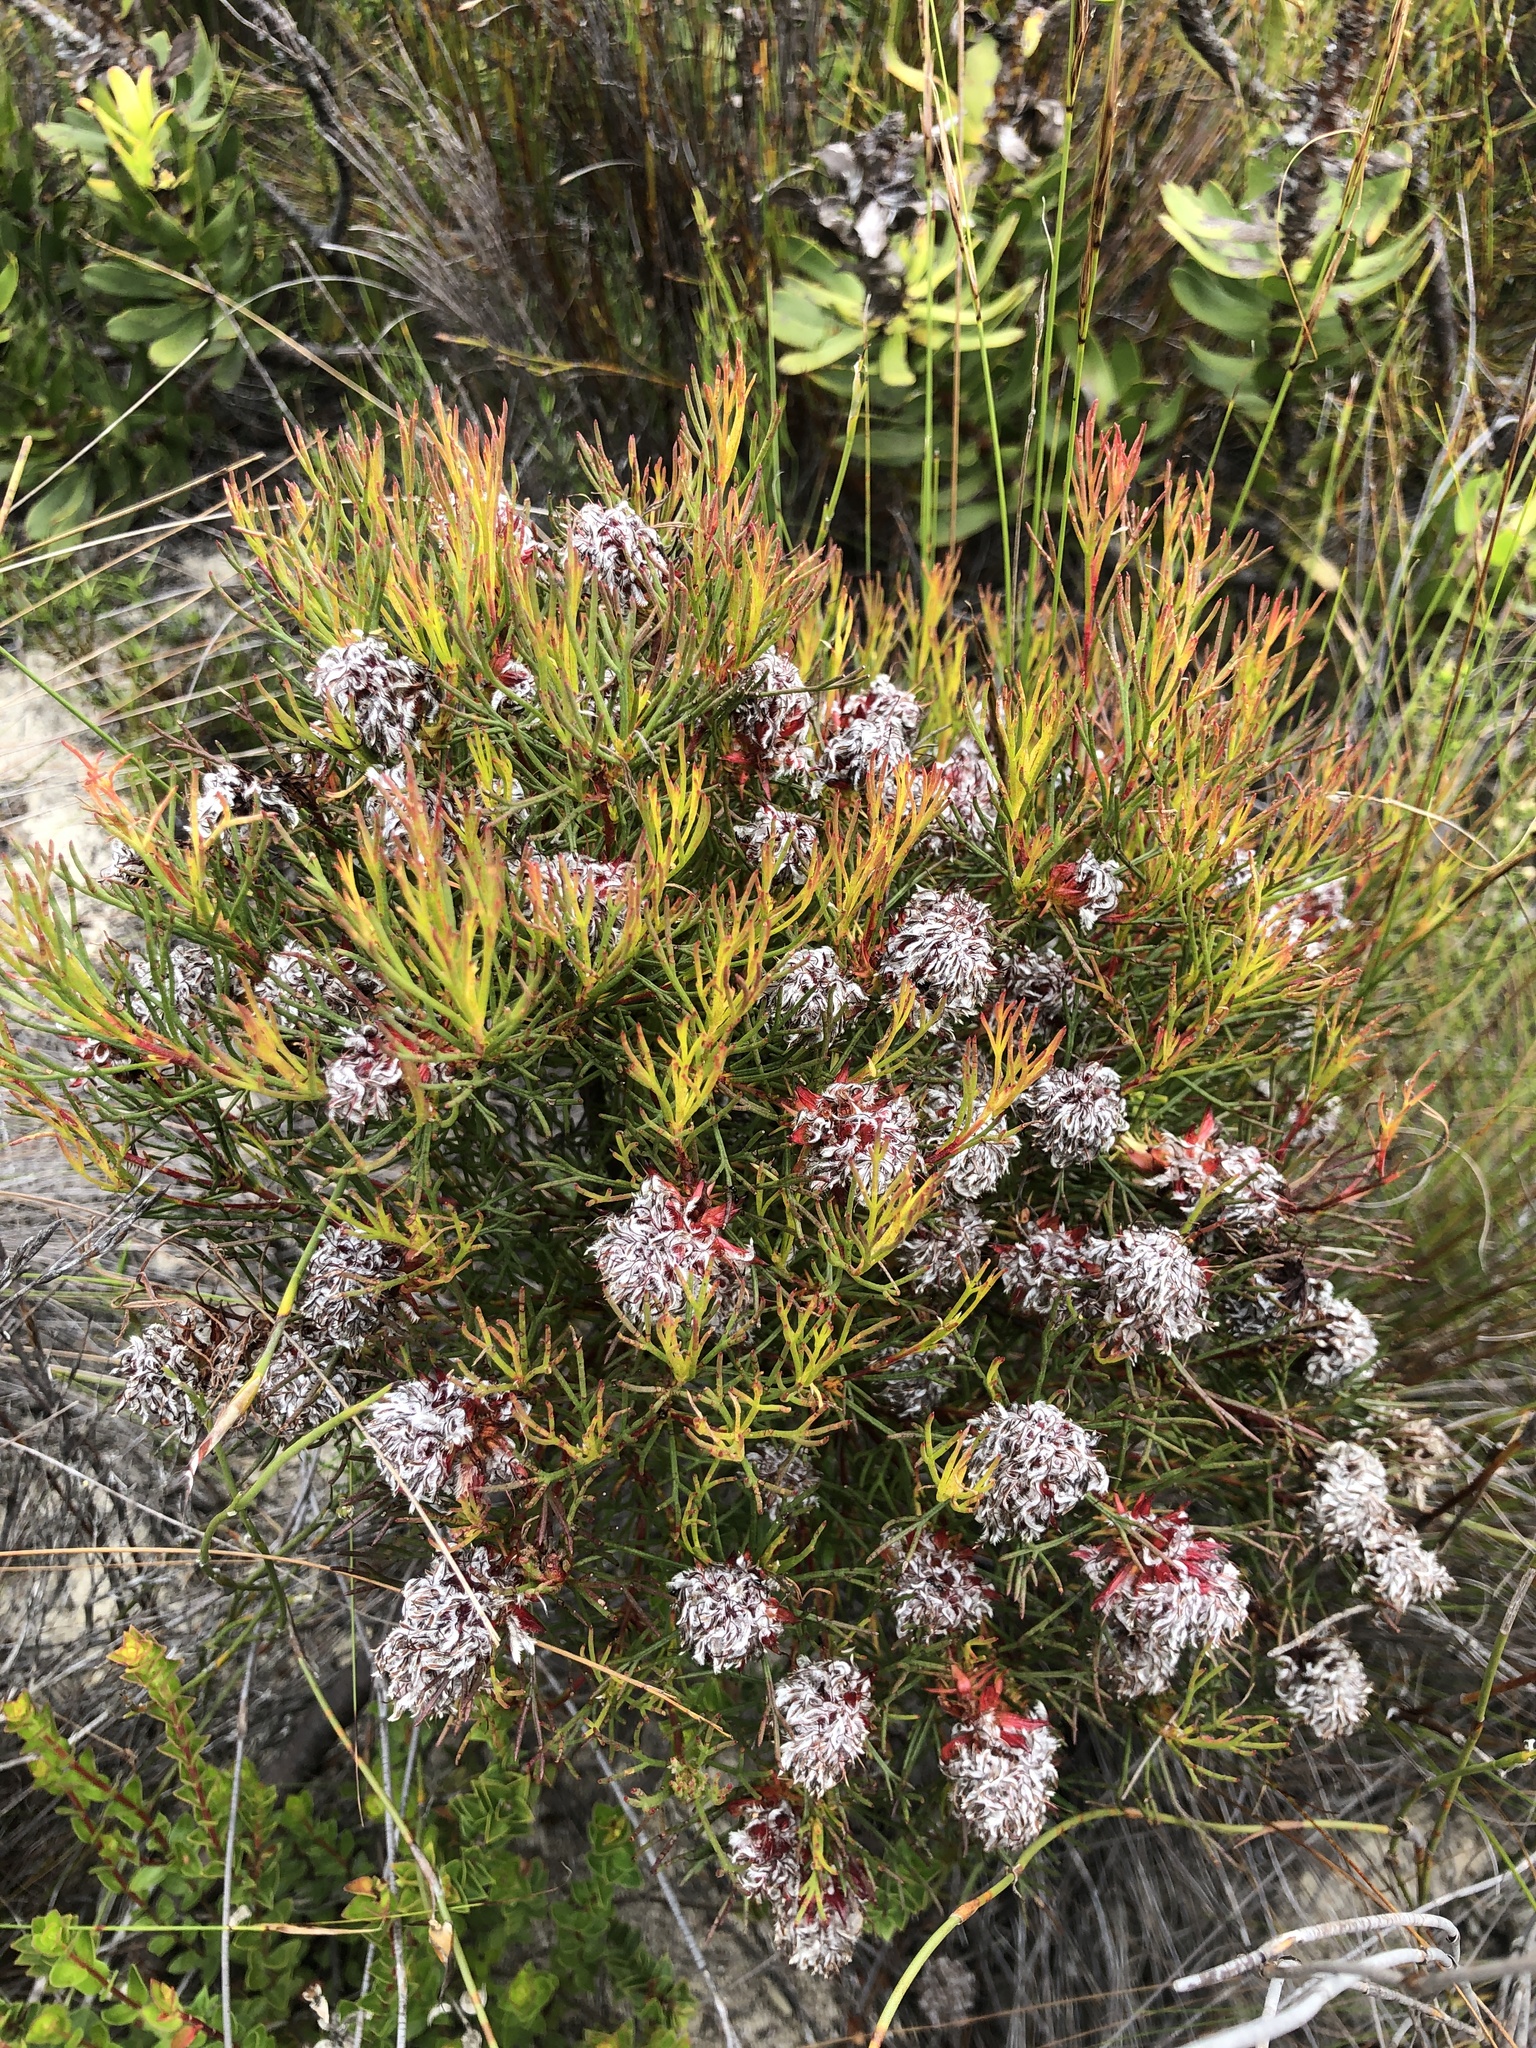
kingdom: Plantae
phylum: Tracheophyta
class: Magnoliopsida
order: Proteales
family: Proteaceae
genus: Serruria
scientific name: Serruria nervosa
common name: Fluted spiderhead
